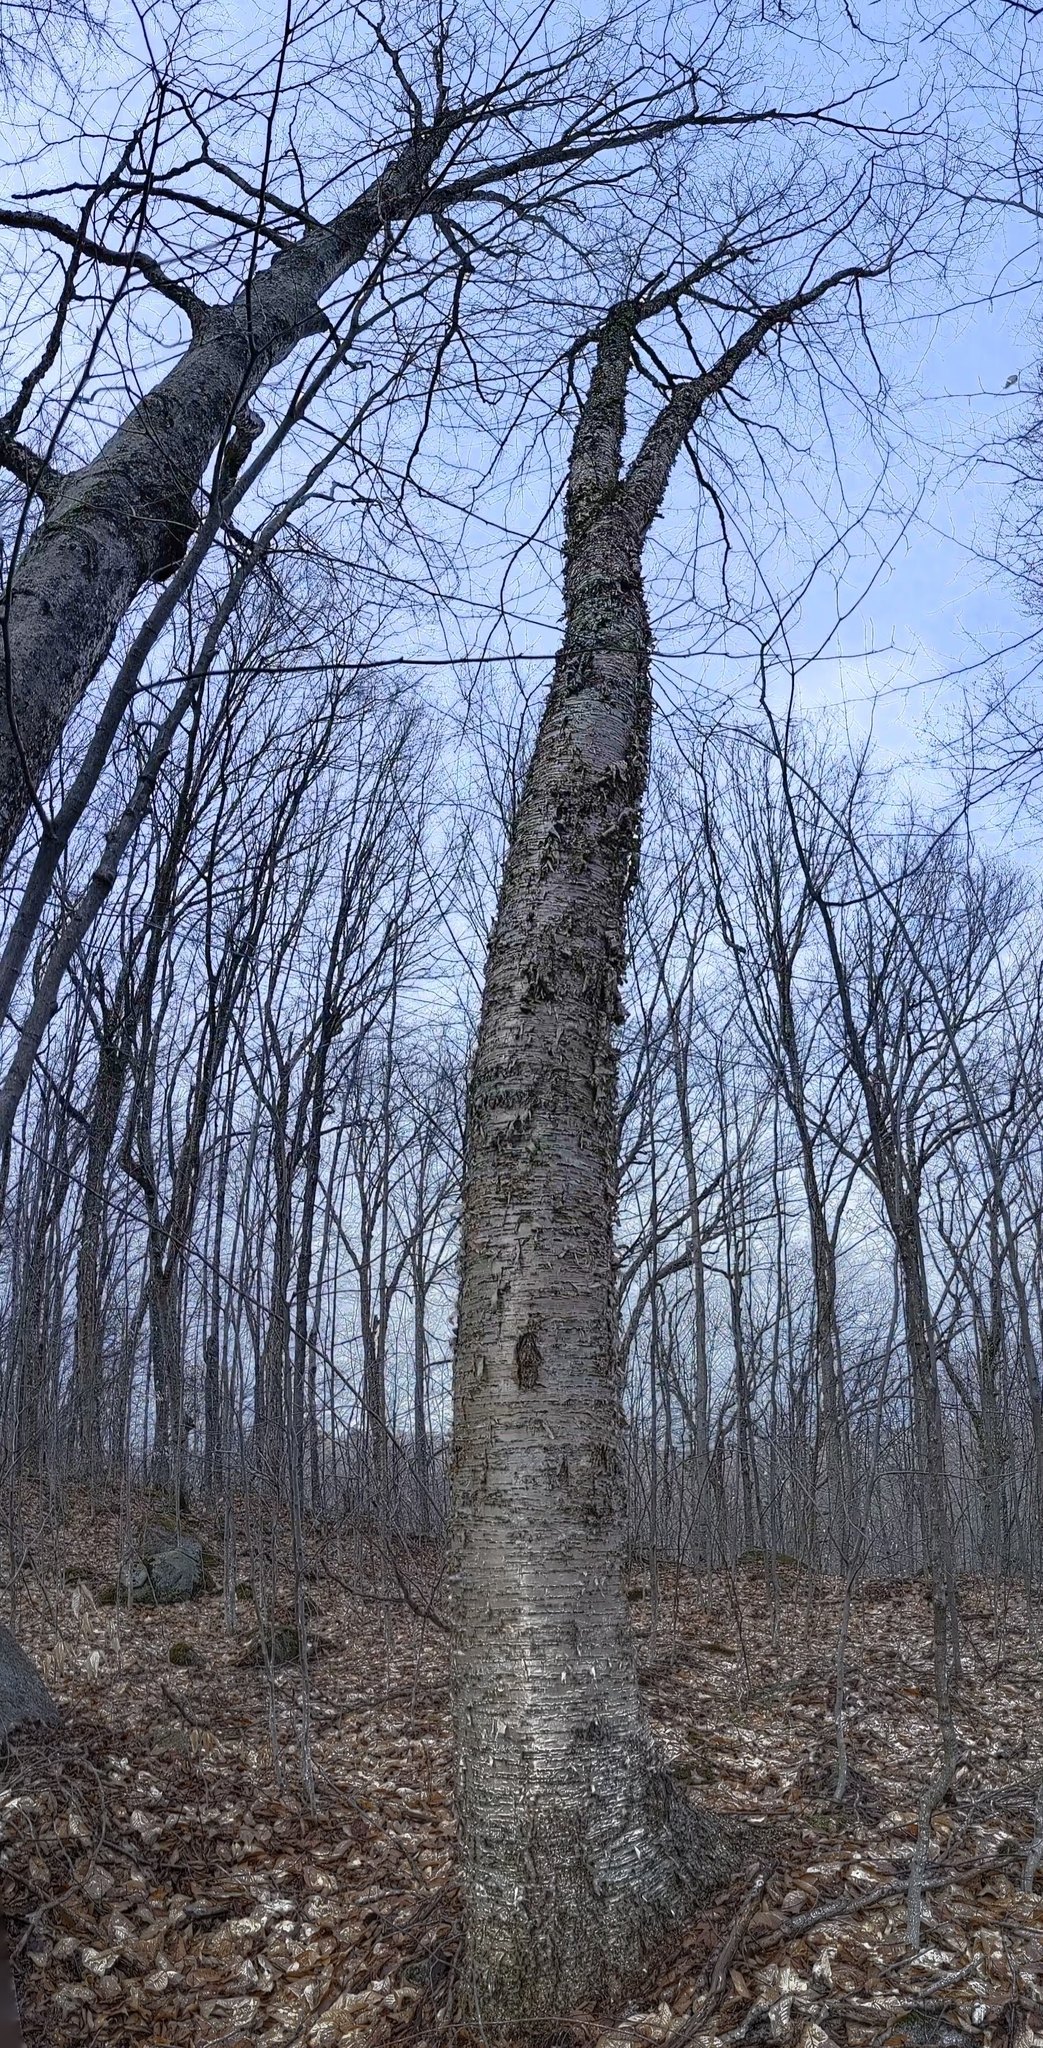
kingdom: Plantae
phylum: Tracheophyta
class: Magnoliopsida
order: Fagales
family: Betulaceae
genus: Betula
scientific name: Betula alleghaniensis
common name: Yellow birch
